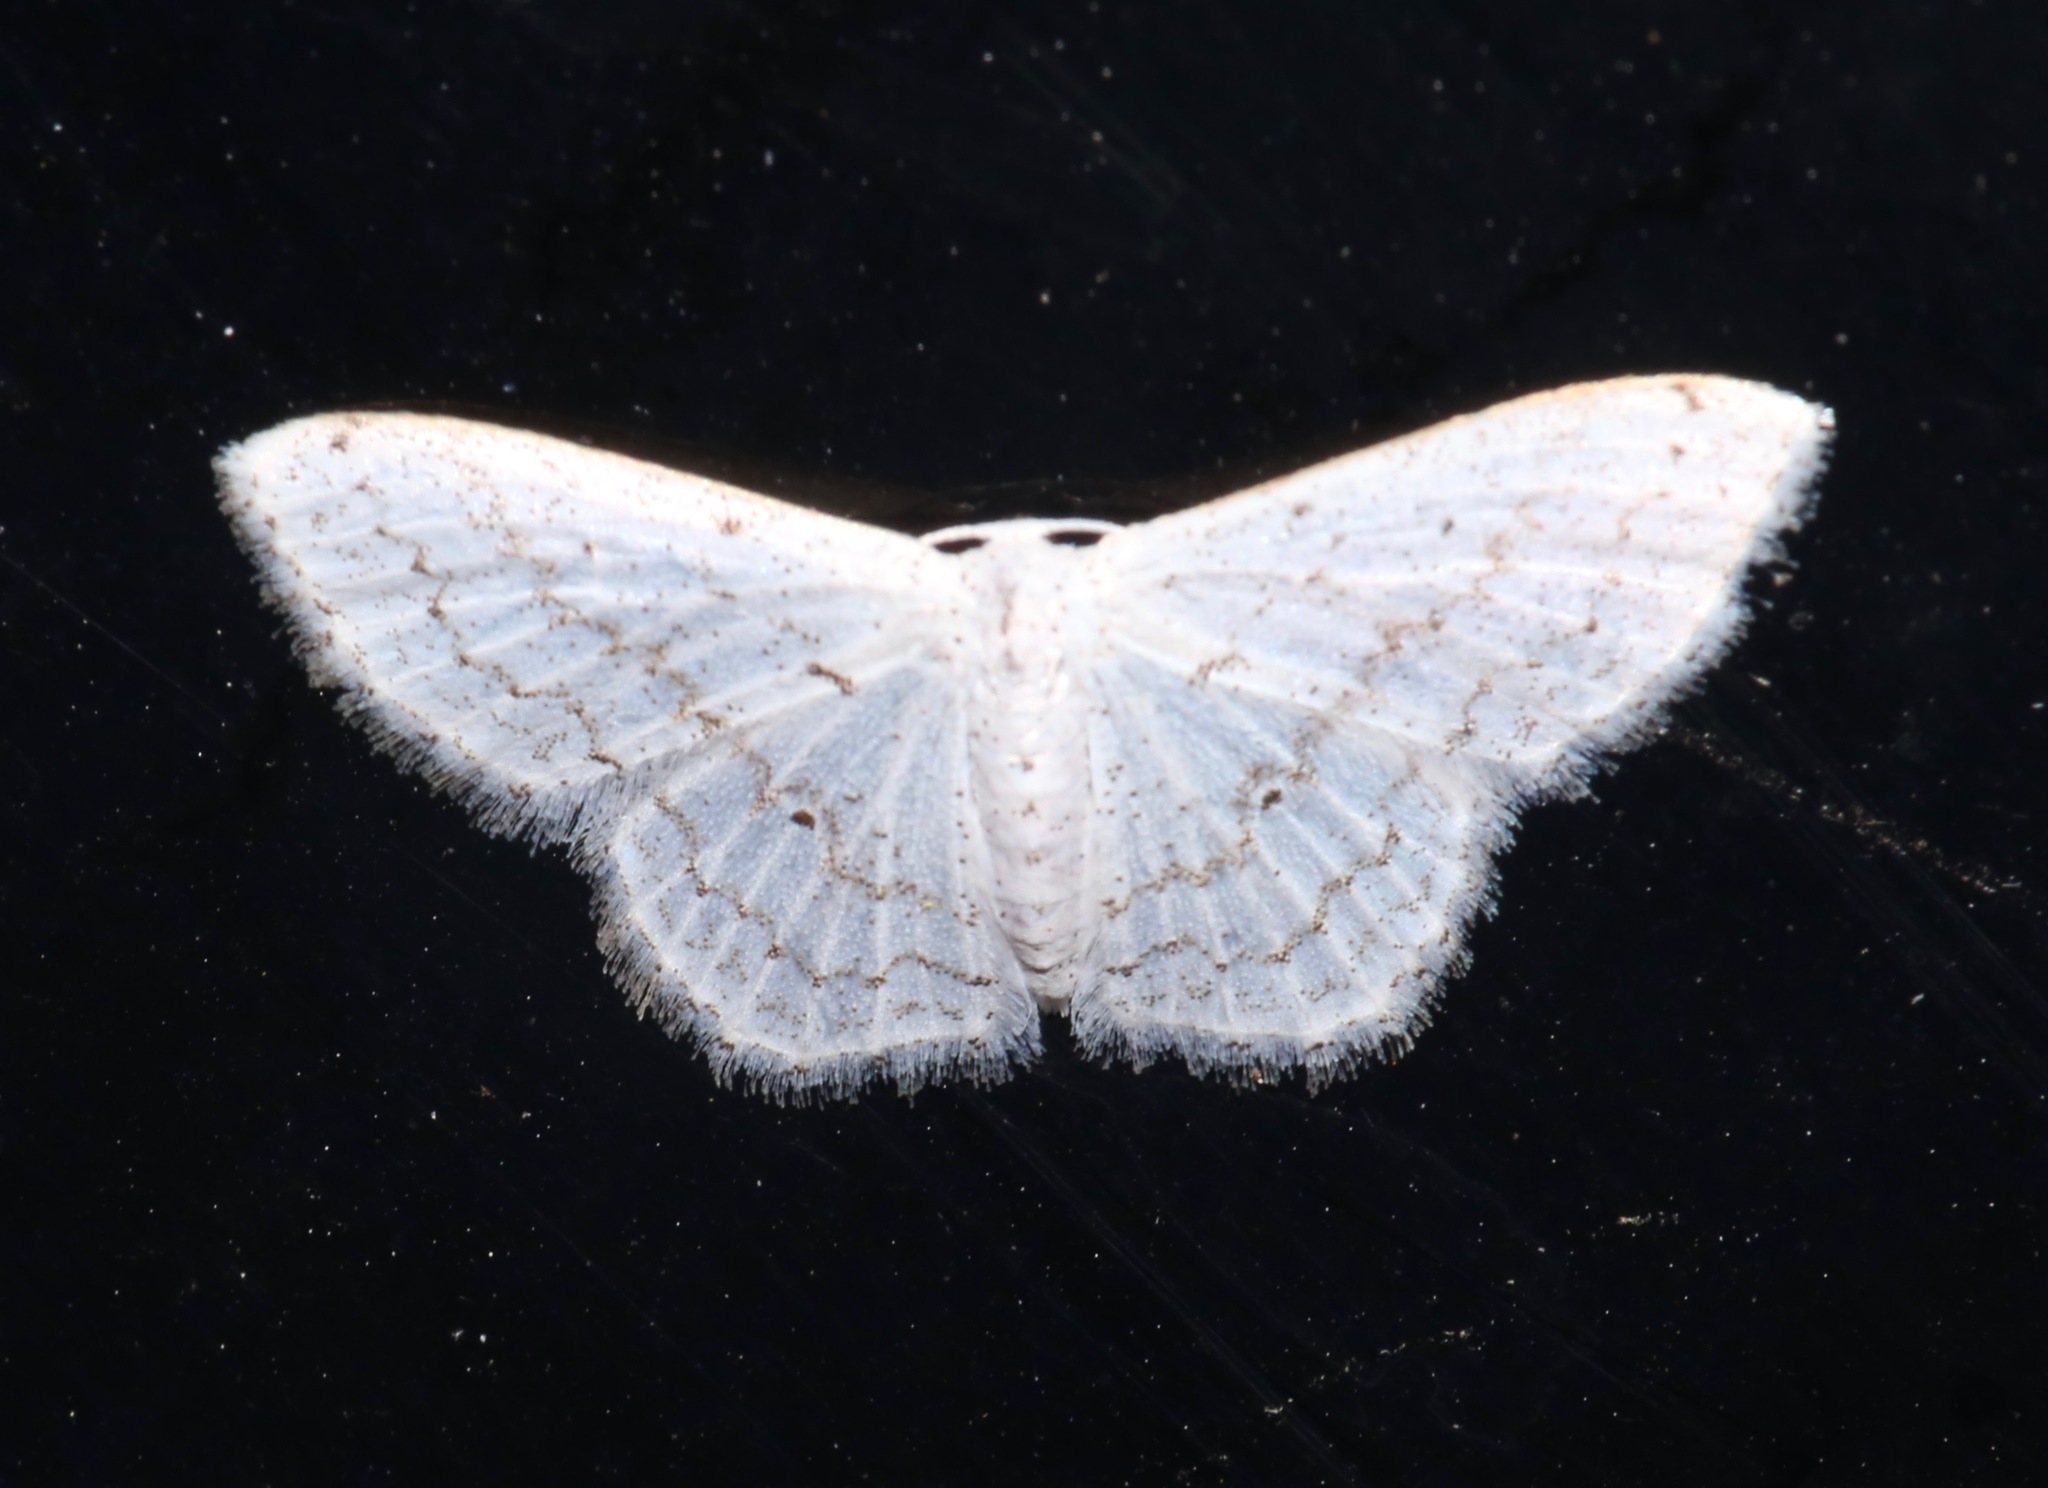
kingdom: Animalia
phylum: Arthropoda
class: Insecta
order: Lepidoptera
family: Geometridae
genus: Idaea
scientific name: Idaea tacturata
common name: Dot-lined wave
